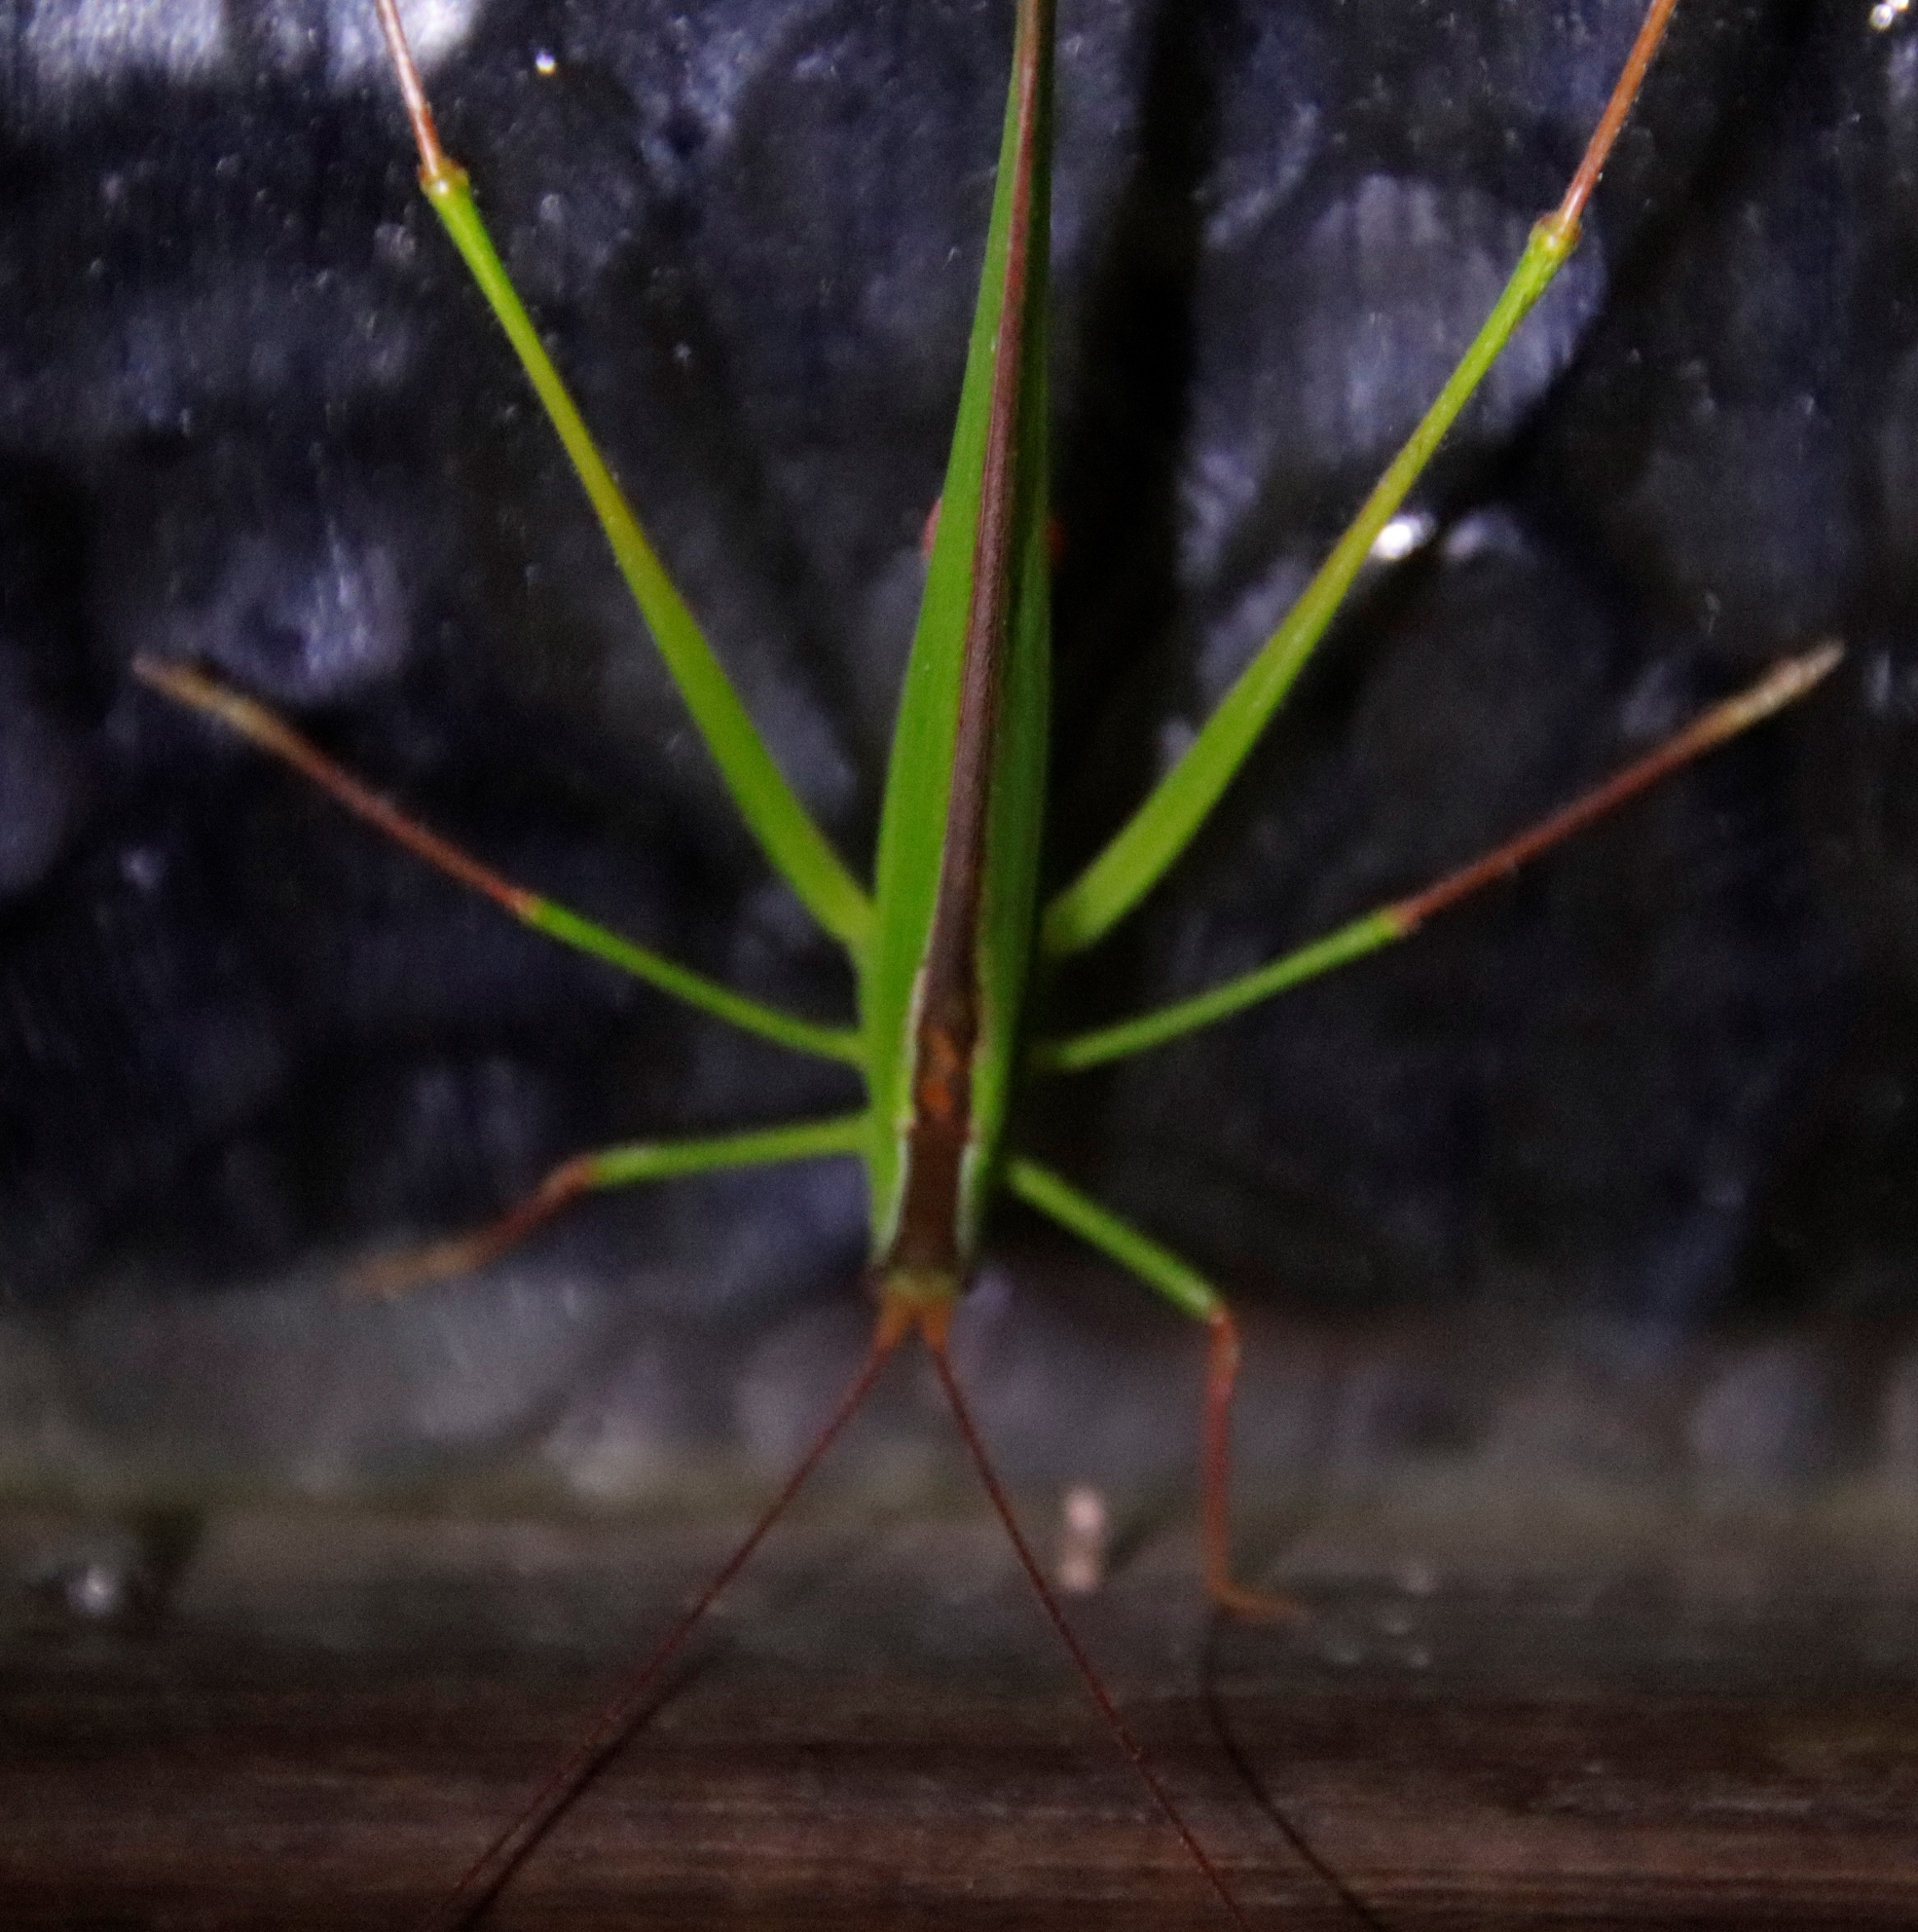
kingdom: Animalia
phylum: Arthropoda
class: Insecta
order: Orthoptera
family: Tettigoniidae
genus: Tylopsis
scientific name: Tylopsis continua
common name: Common grass katydid
